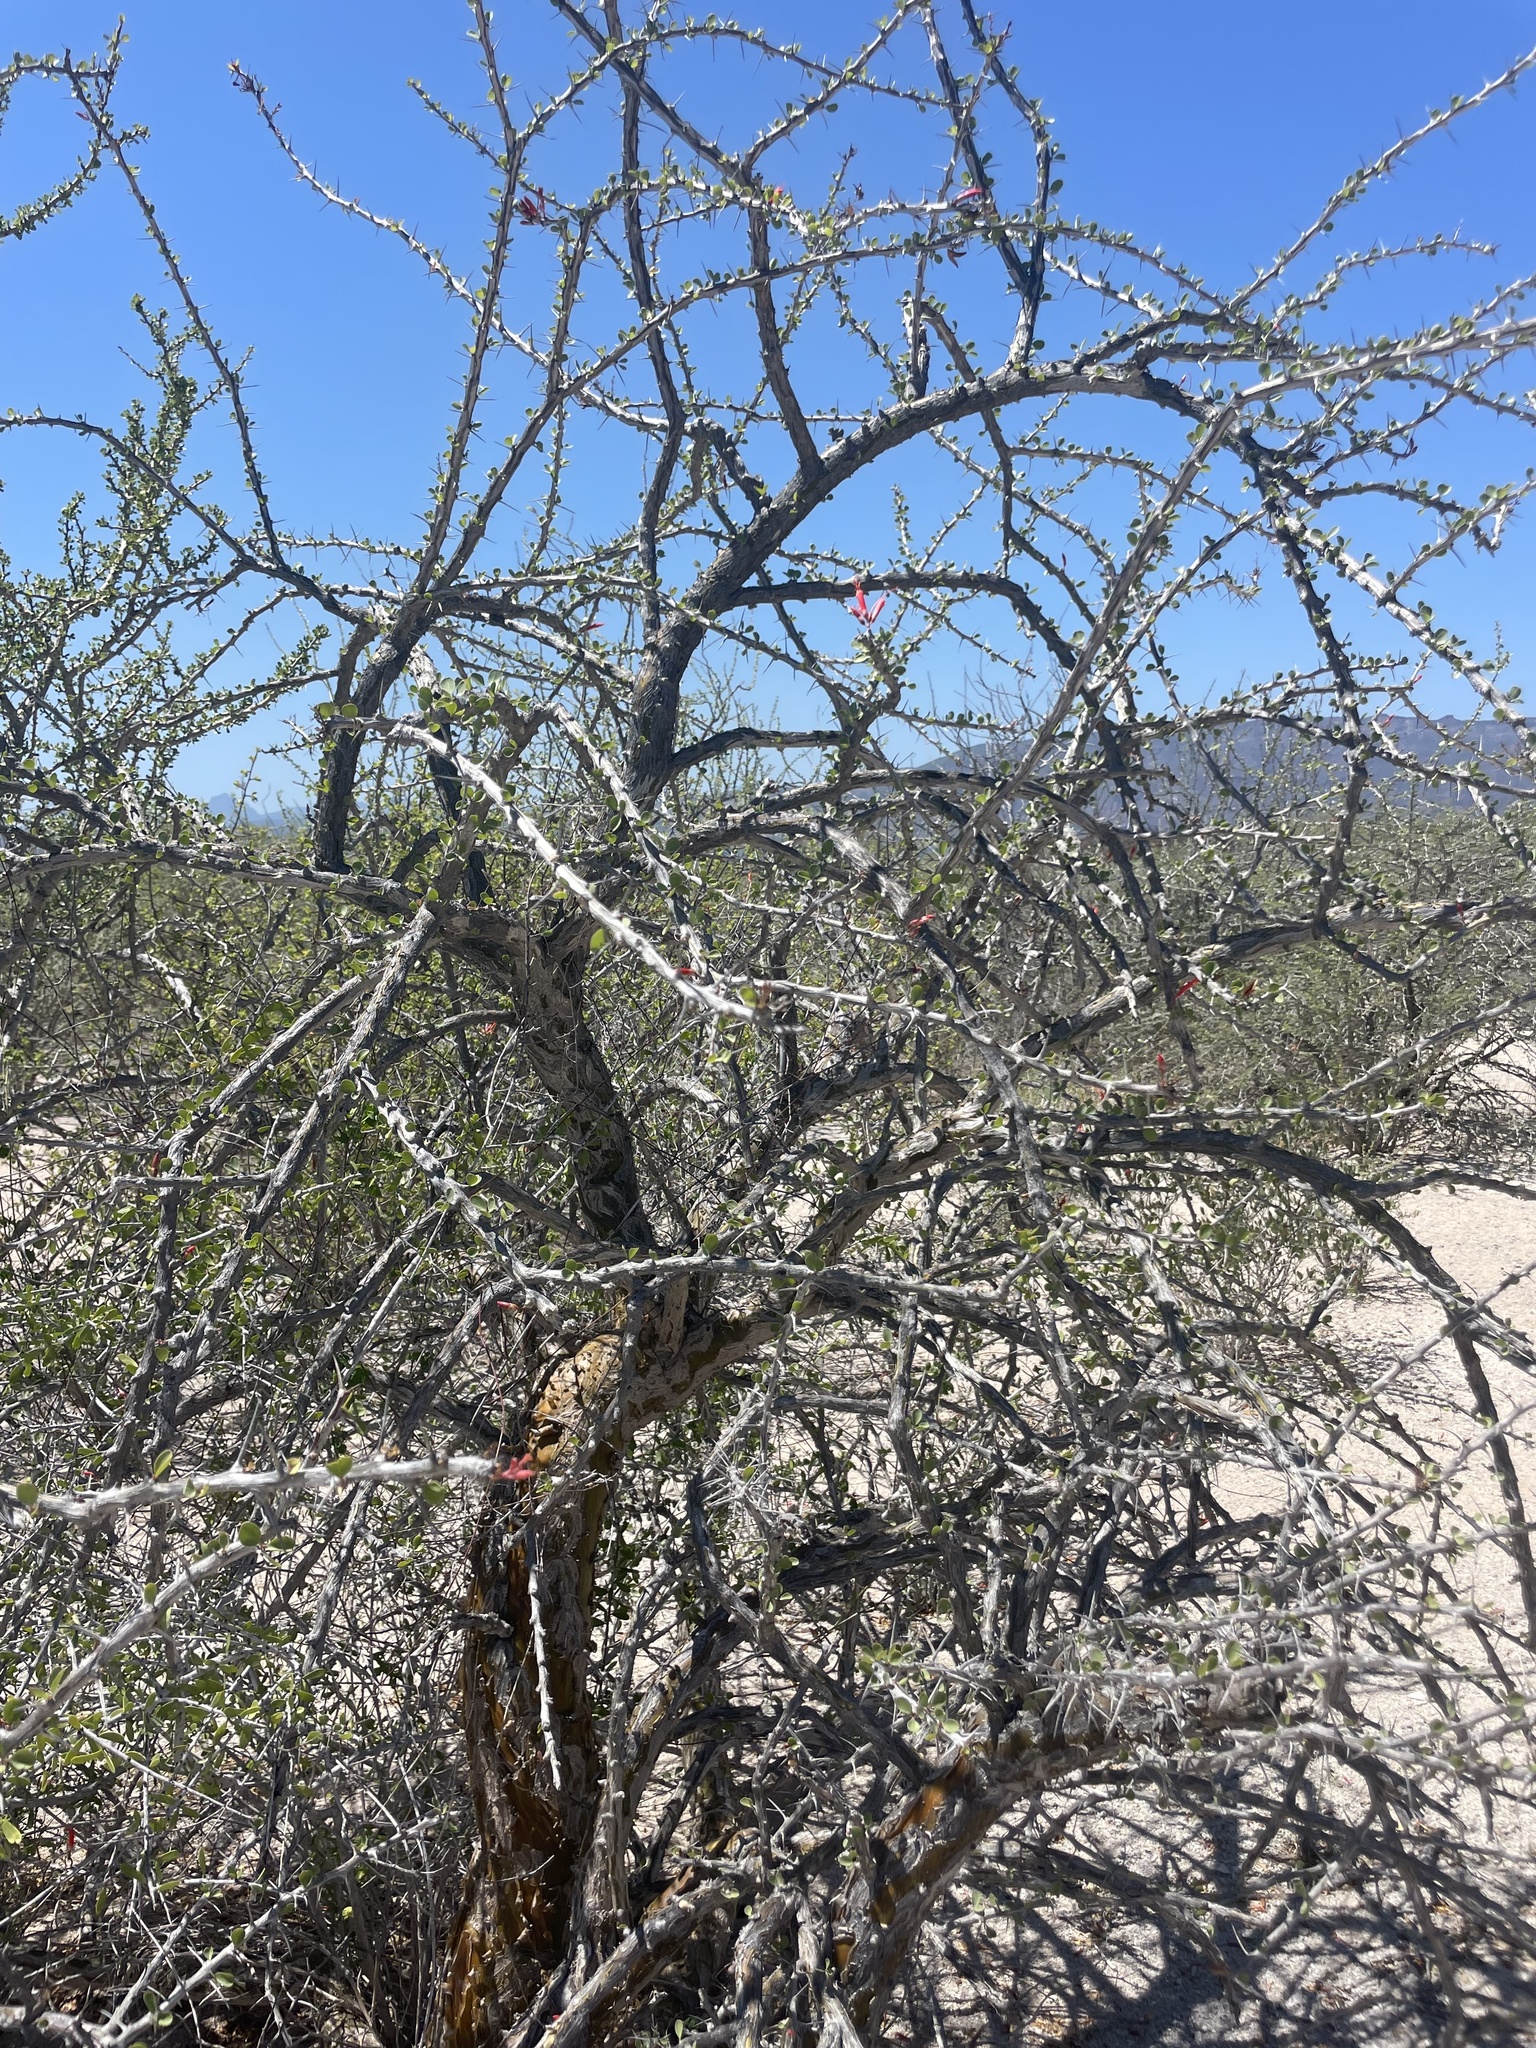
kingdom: Plantae
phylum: Tracheophyta
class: Magnoliopsida
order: Ericales
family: Fouquieriaceae
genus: Fouquieria
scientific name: Fouquieria diguetii
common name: Adam's tree
